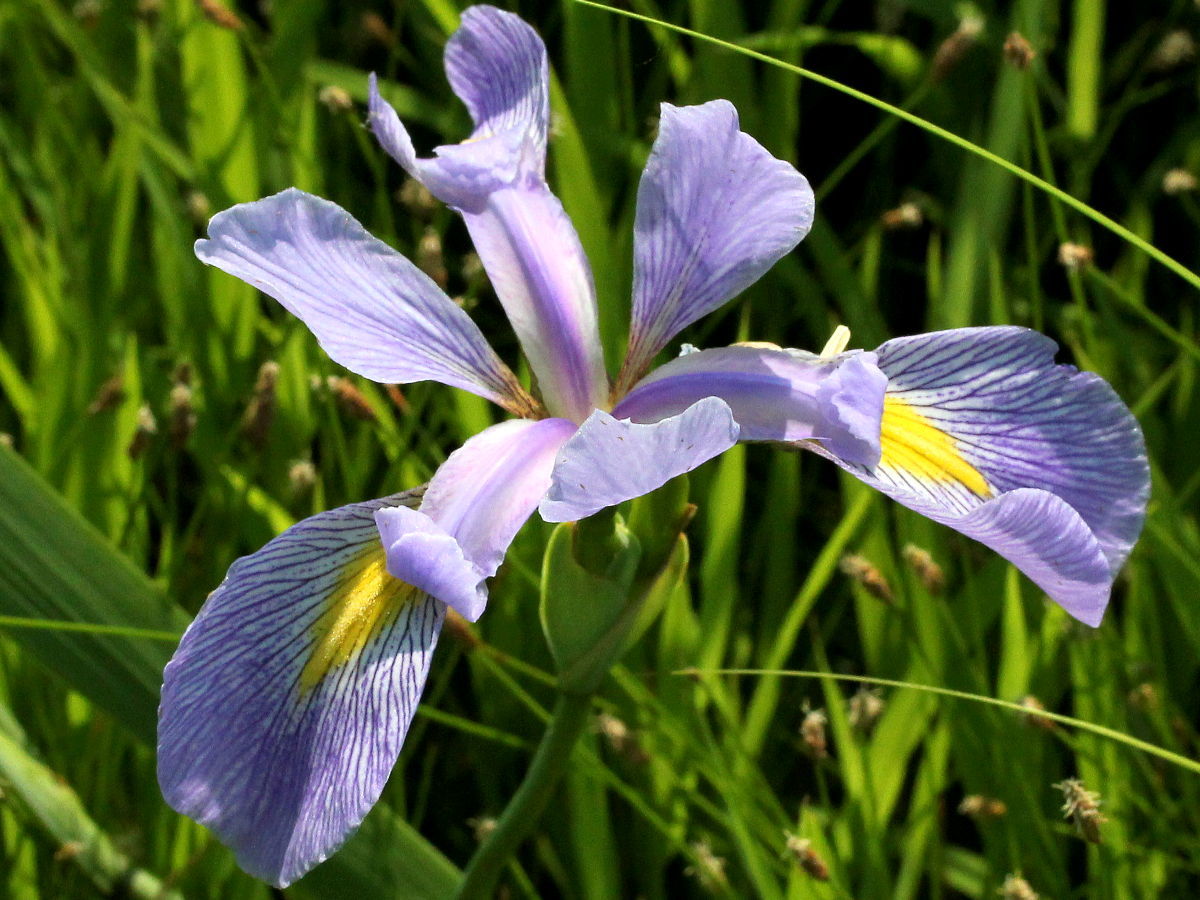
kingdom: Plantae
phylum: Tracheophyta
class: Liliopsida
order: Asparagales
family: Iridaceae
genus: Iris
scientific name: Iris virginica
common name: Southern blue flag
